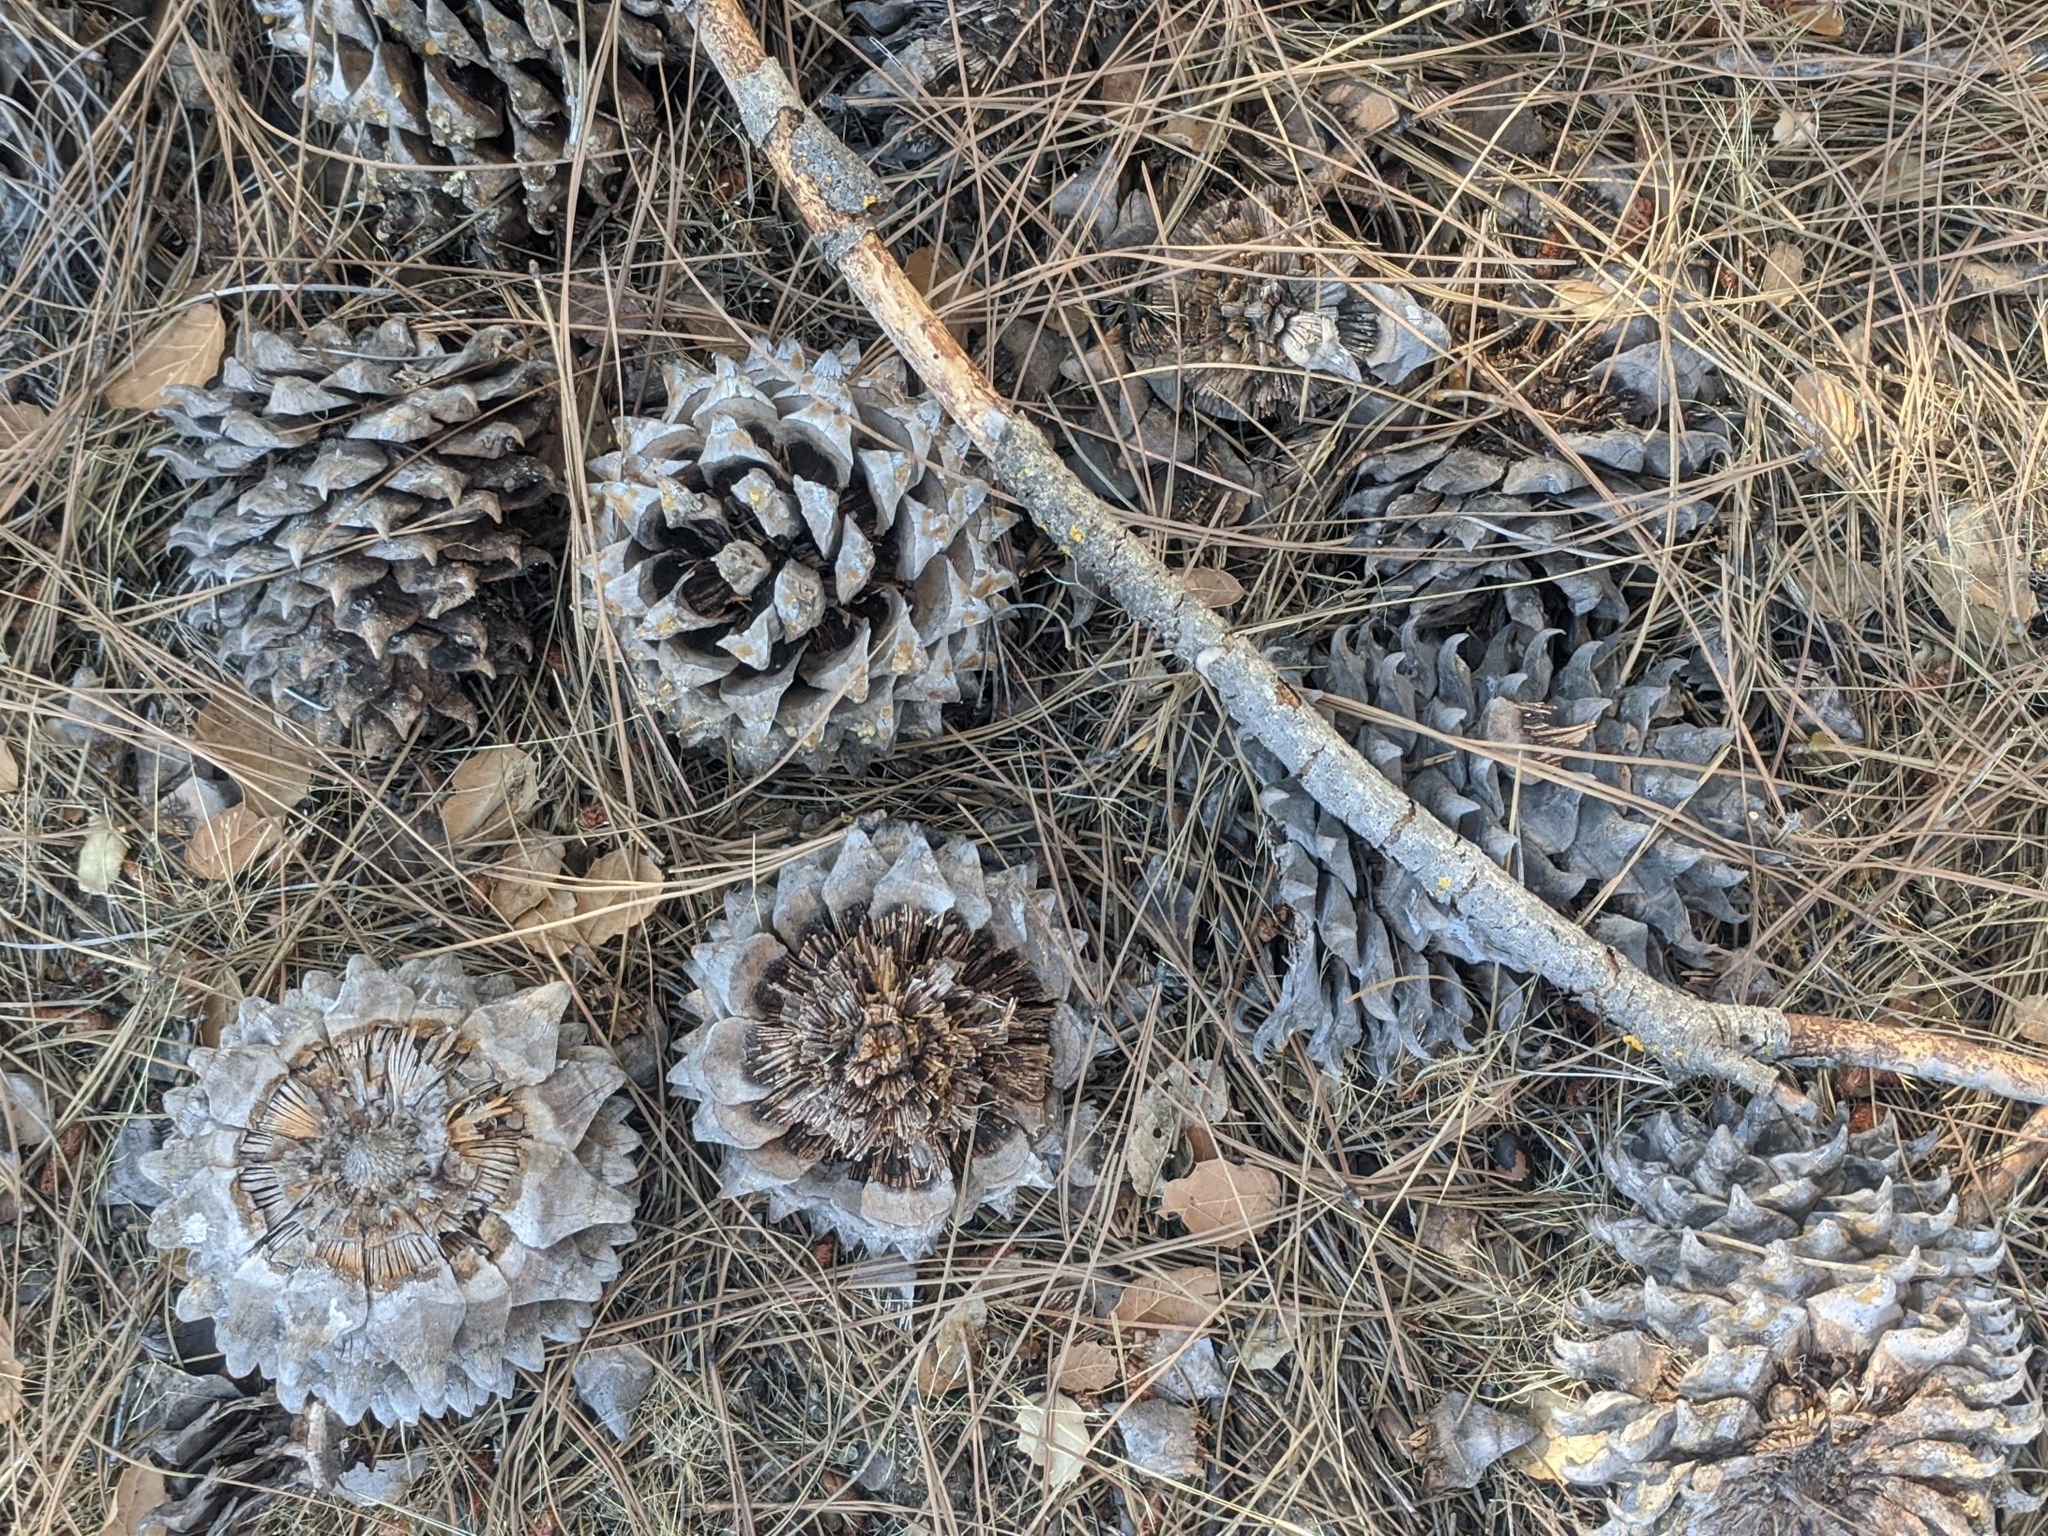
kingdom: Plantae
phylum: Tracheophyta
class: Pinopsida
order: Pinales
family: Pinaceae
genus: Pinus
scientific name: Pinus sabiniana
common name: Bull pine
